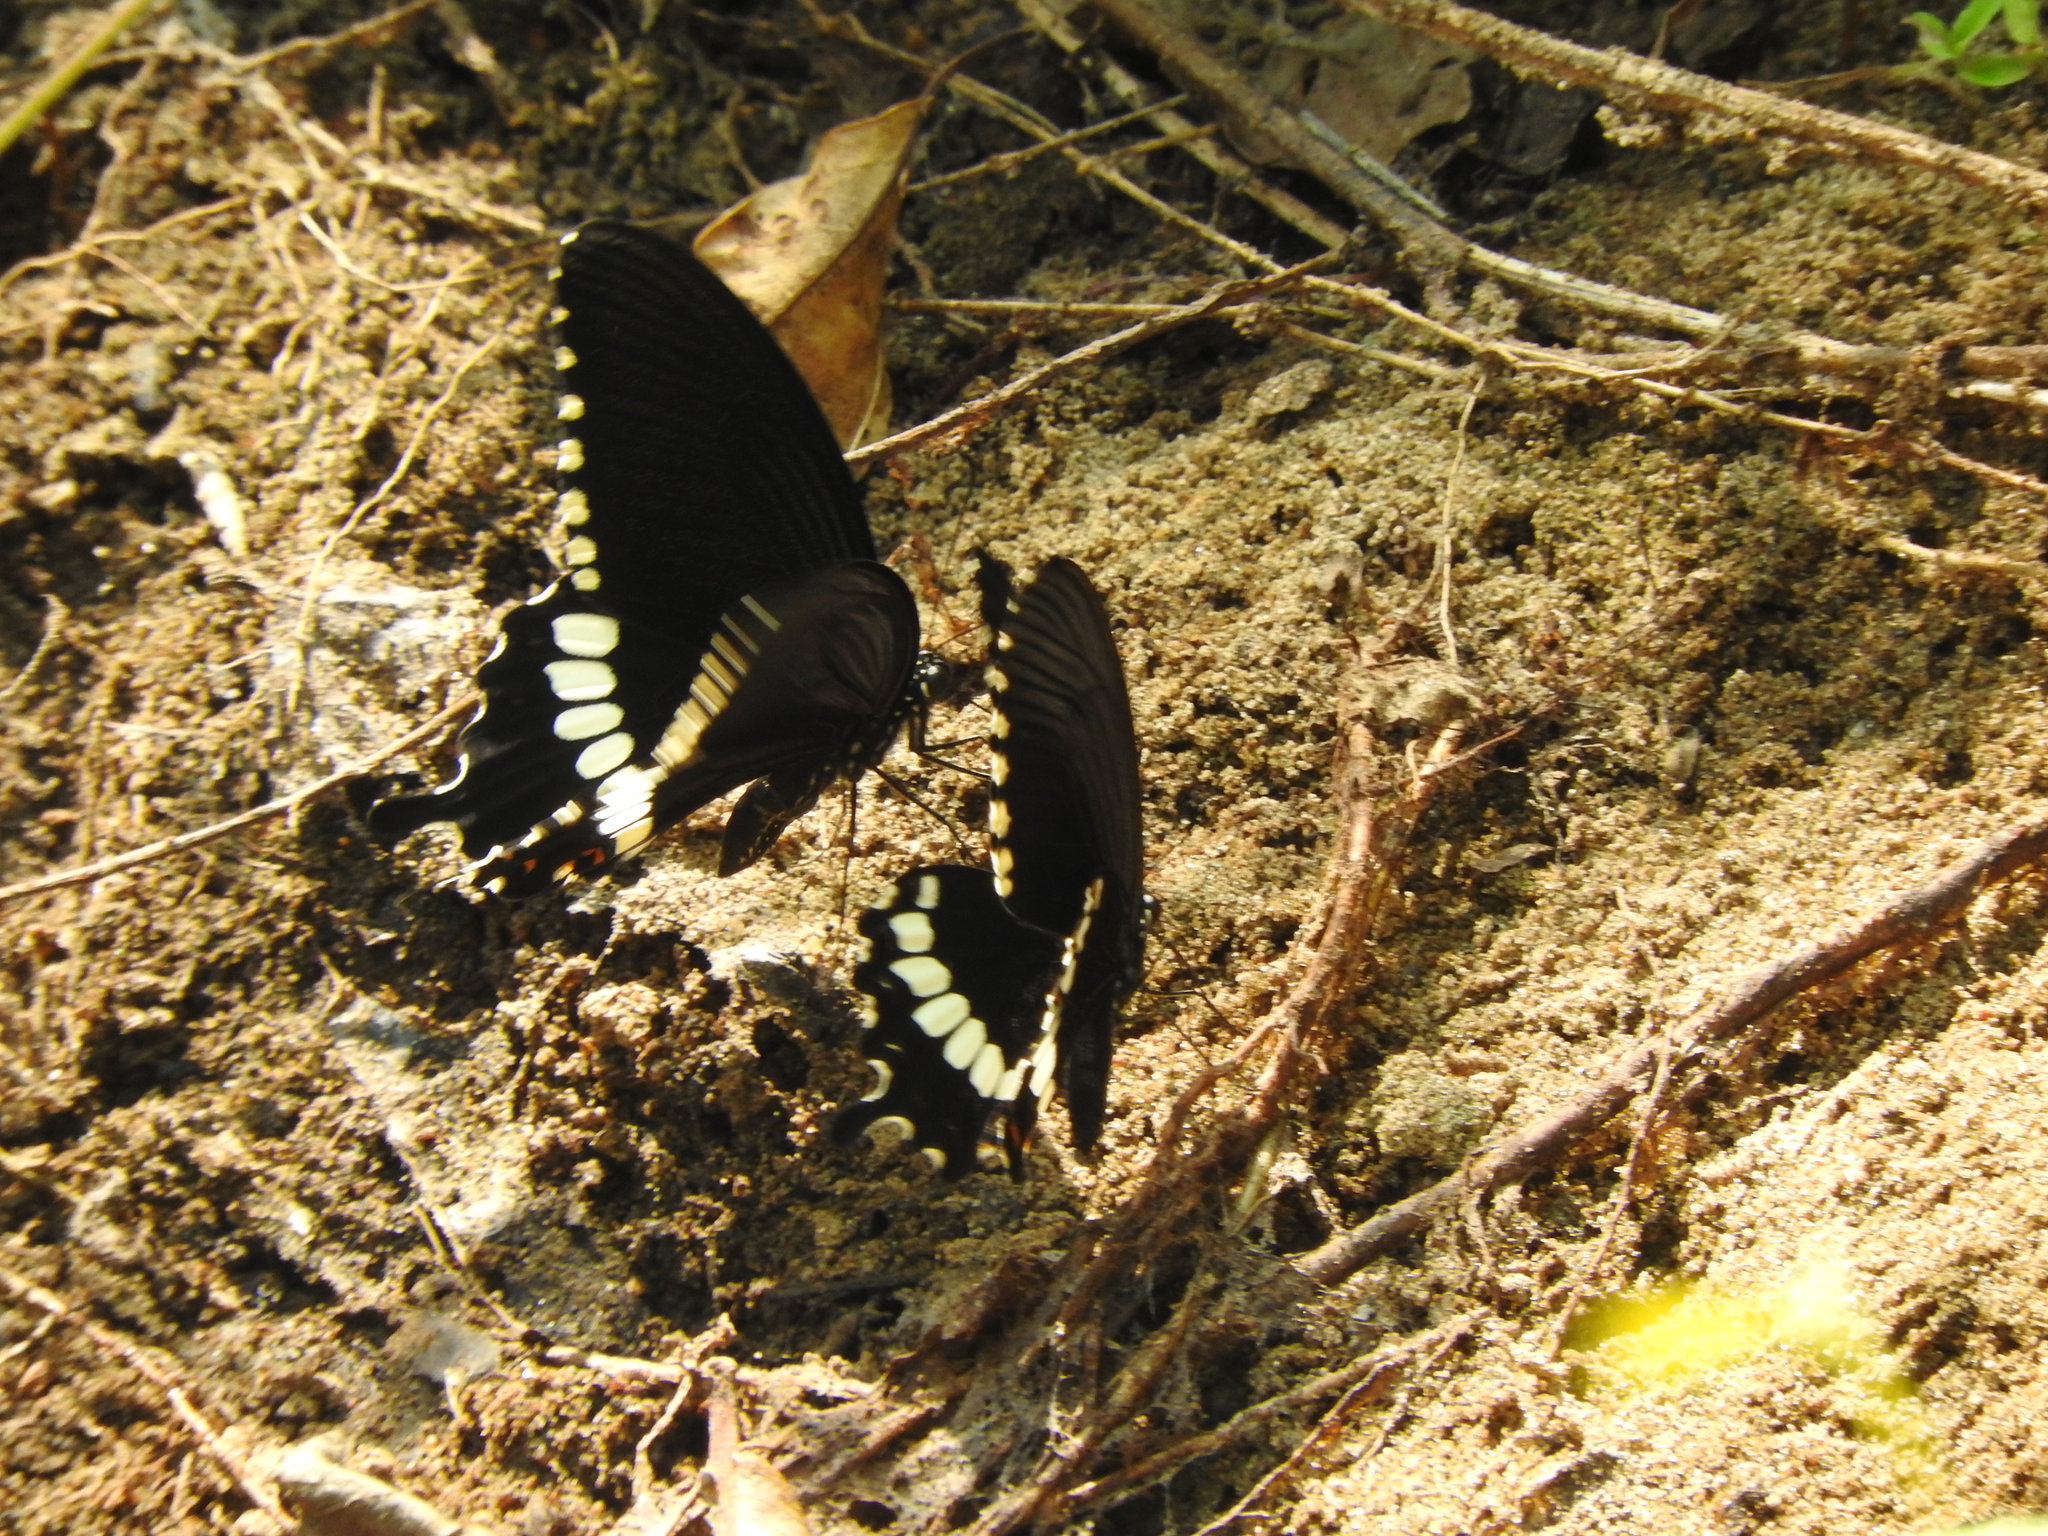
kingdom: Animalia
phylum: Arthropoda
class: Insecta
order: Lepidoptera
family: Papilionidae
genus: Papilio
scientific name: Papilio polytes
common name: Common mormon
